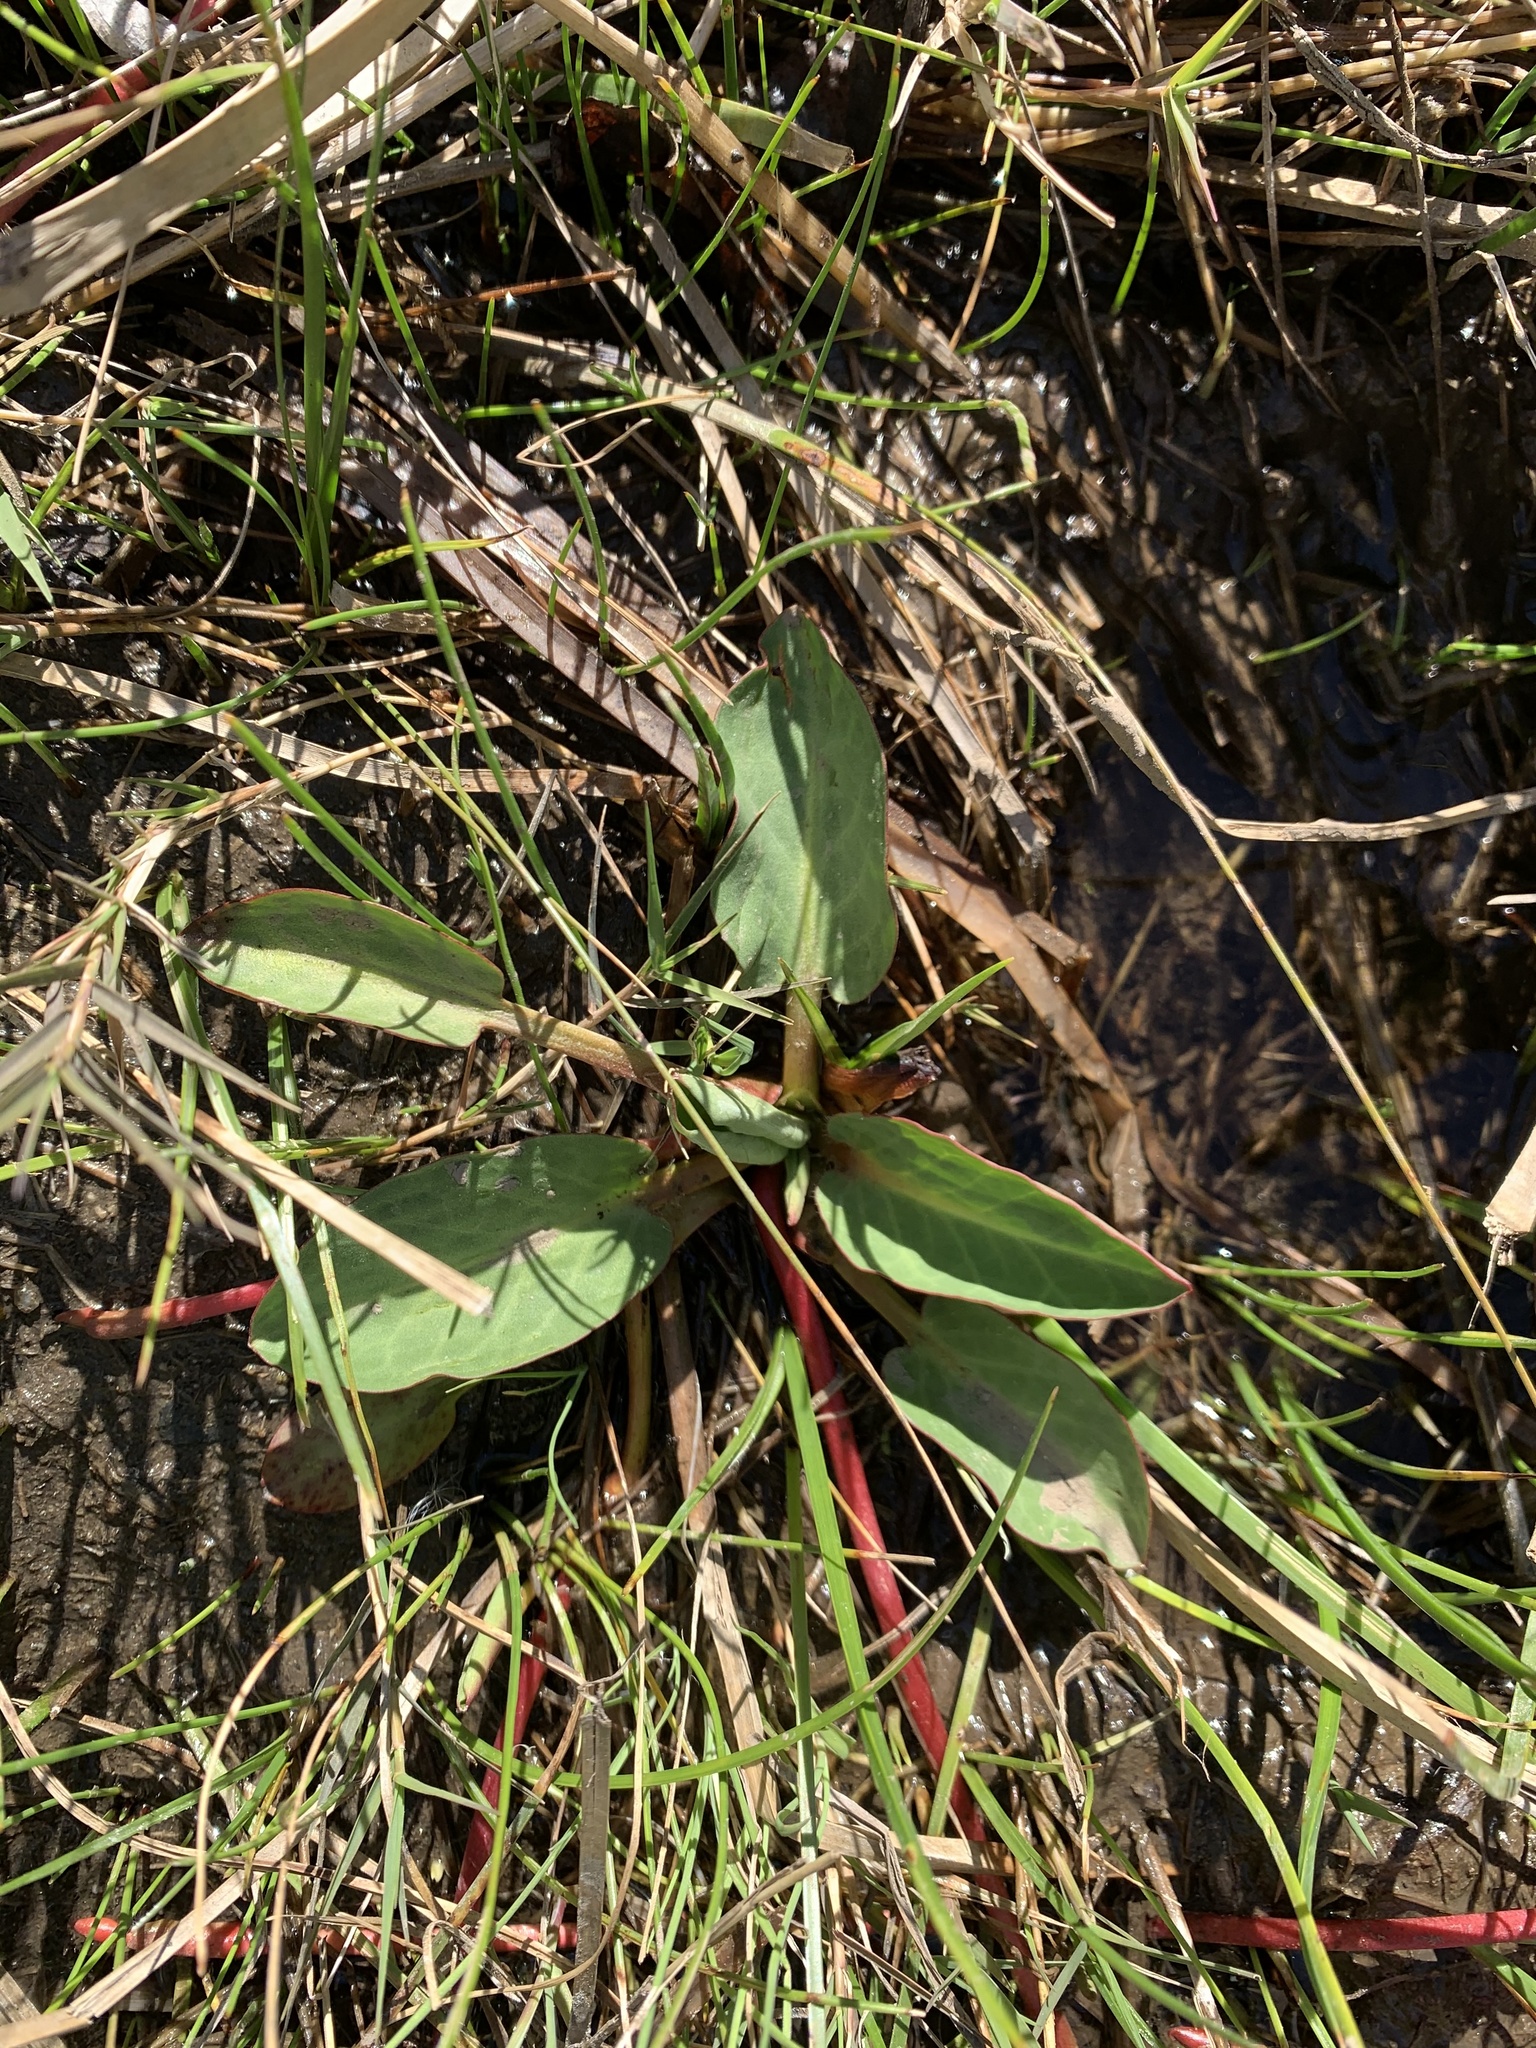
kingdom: Plantae
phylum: Tracheophyta
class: Magnoliopsida
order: Piperales
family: Saururaceae
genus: Anemopsis
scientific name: Anemopsis californica
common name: Apache-beads
